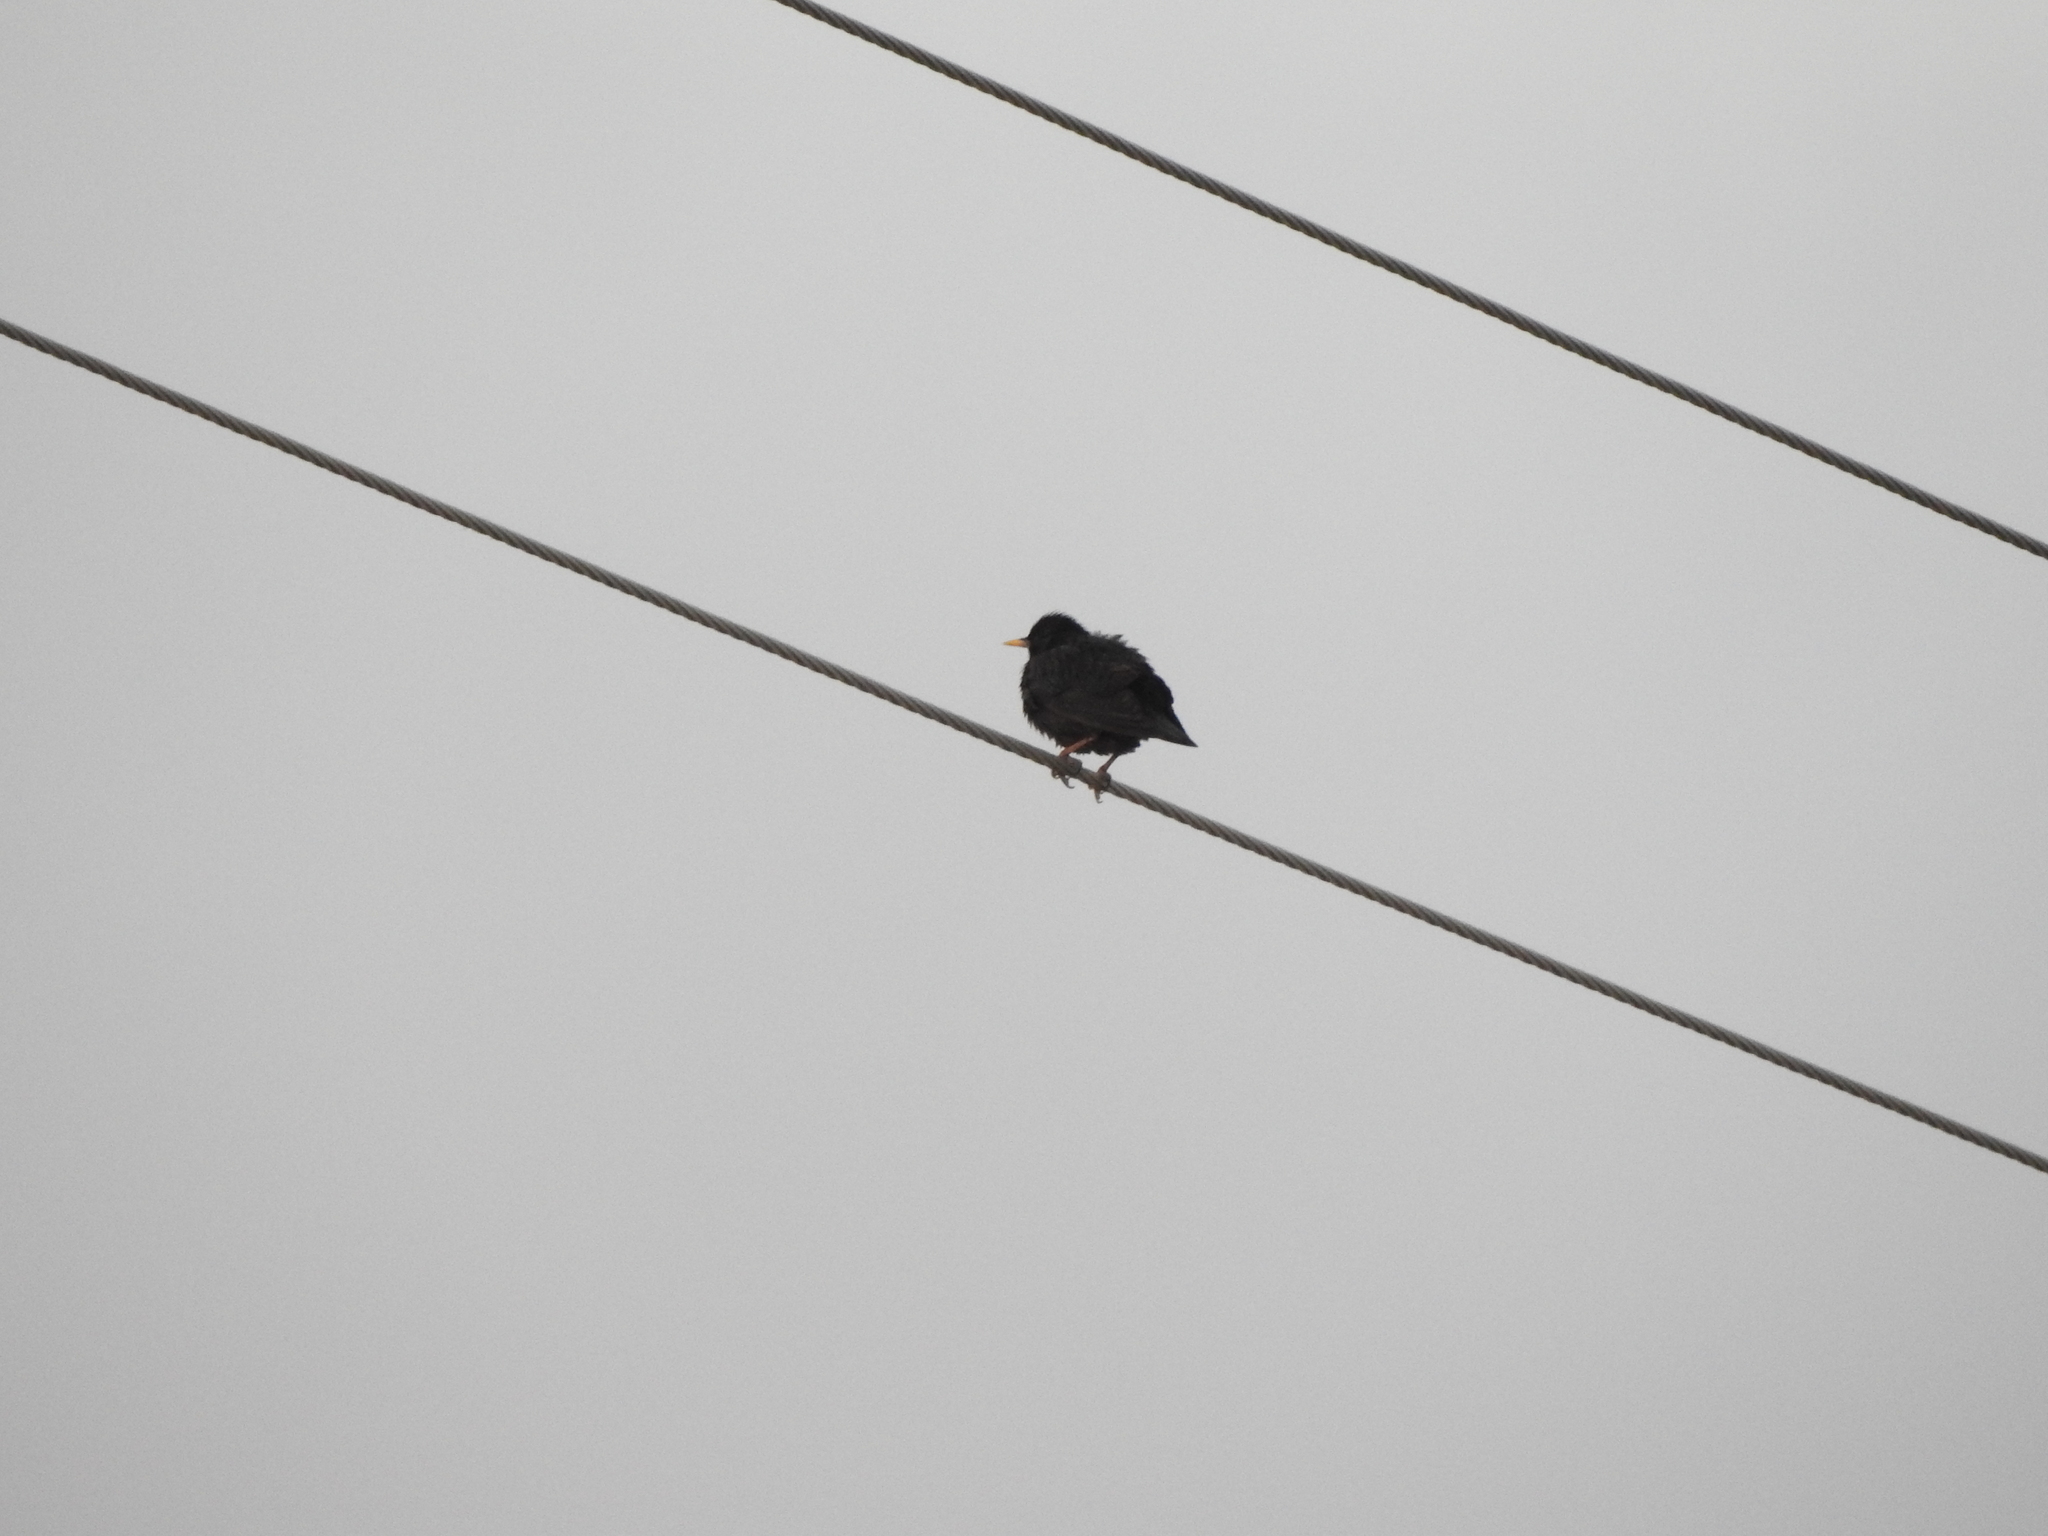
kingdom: Animalia
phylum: Chordata
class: Aves
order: Passeriformes
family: Sturnidae
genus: Sturnus
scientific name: Sturnus unicolor
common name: Spotless starling
